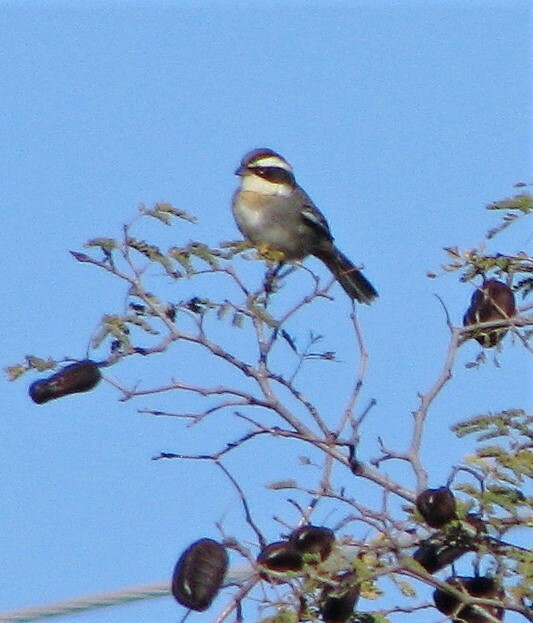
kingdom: Animalia
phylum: Chordata
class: Aves
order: Passeriformes
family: Thraupidae
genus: Microspingus
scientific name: Microspingus torquatus
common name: Ringed warbling-finch
